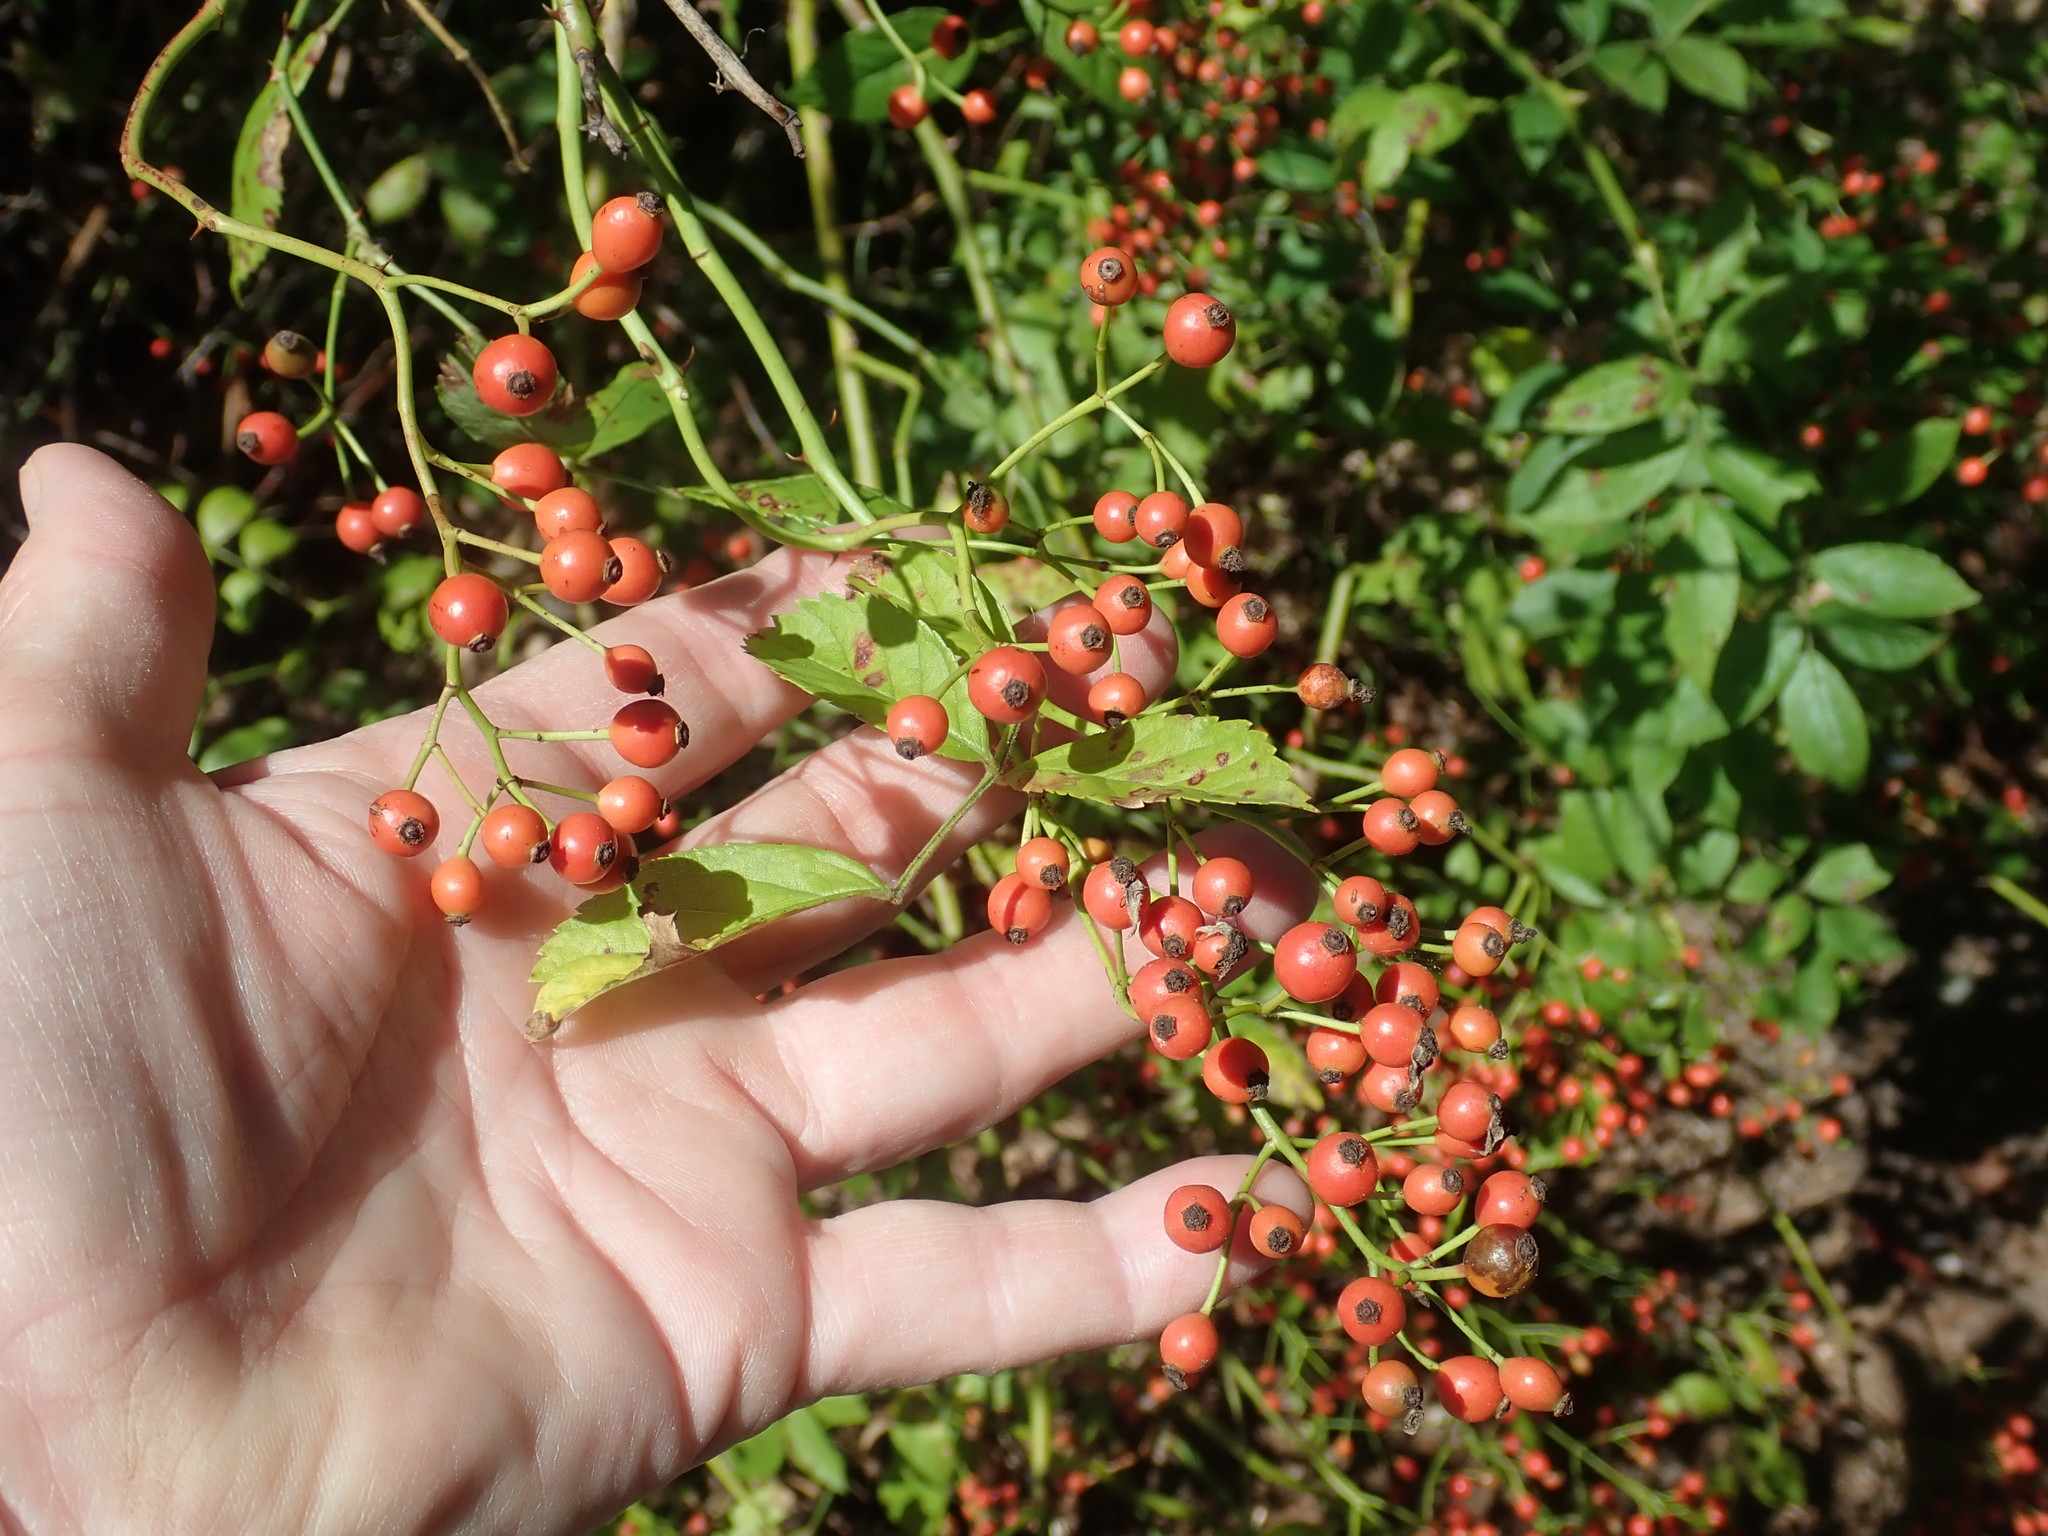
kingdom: Plantae
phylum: Tracheophyta
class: Magnoliopsida
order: Rosales
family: Rosaceae
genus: Rosa
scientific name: Rosa multiflora
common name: Multiflora rose
